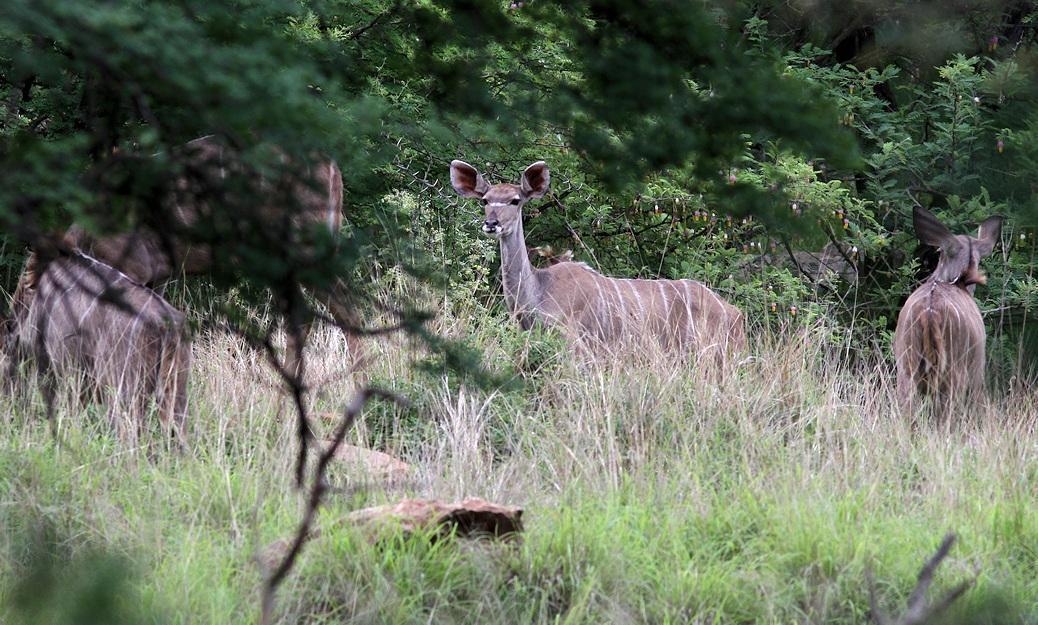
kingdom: Animalia
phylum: Chordata
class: Mammalia
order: Artiodactyla
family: Bovidae
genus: Tragelaphus
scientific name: Tragelaphus strepsiceros
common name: Greater kudu
